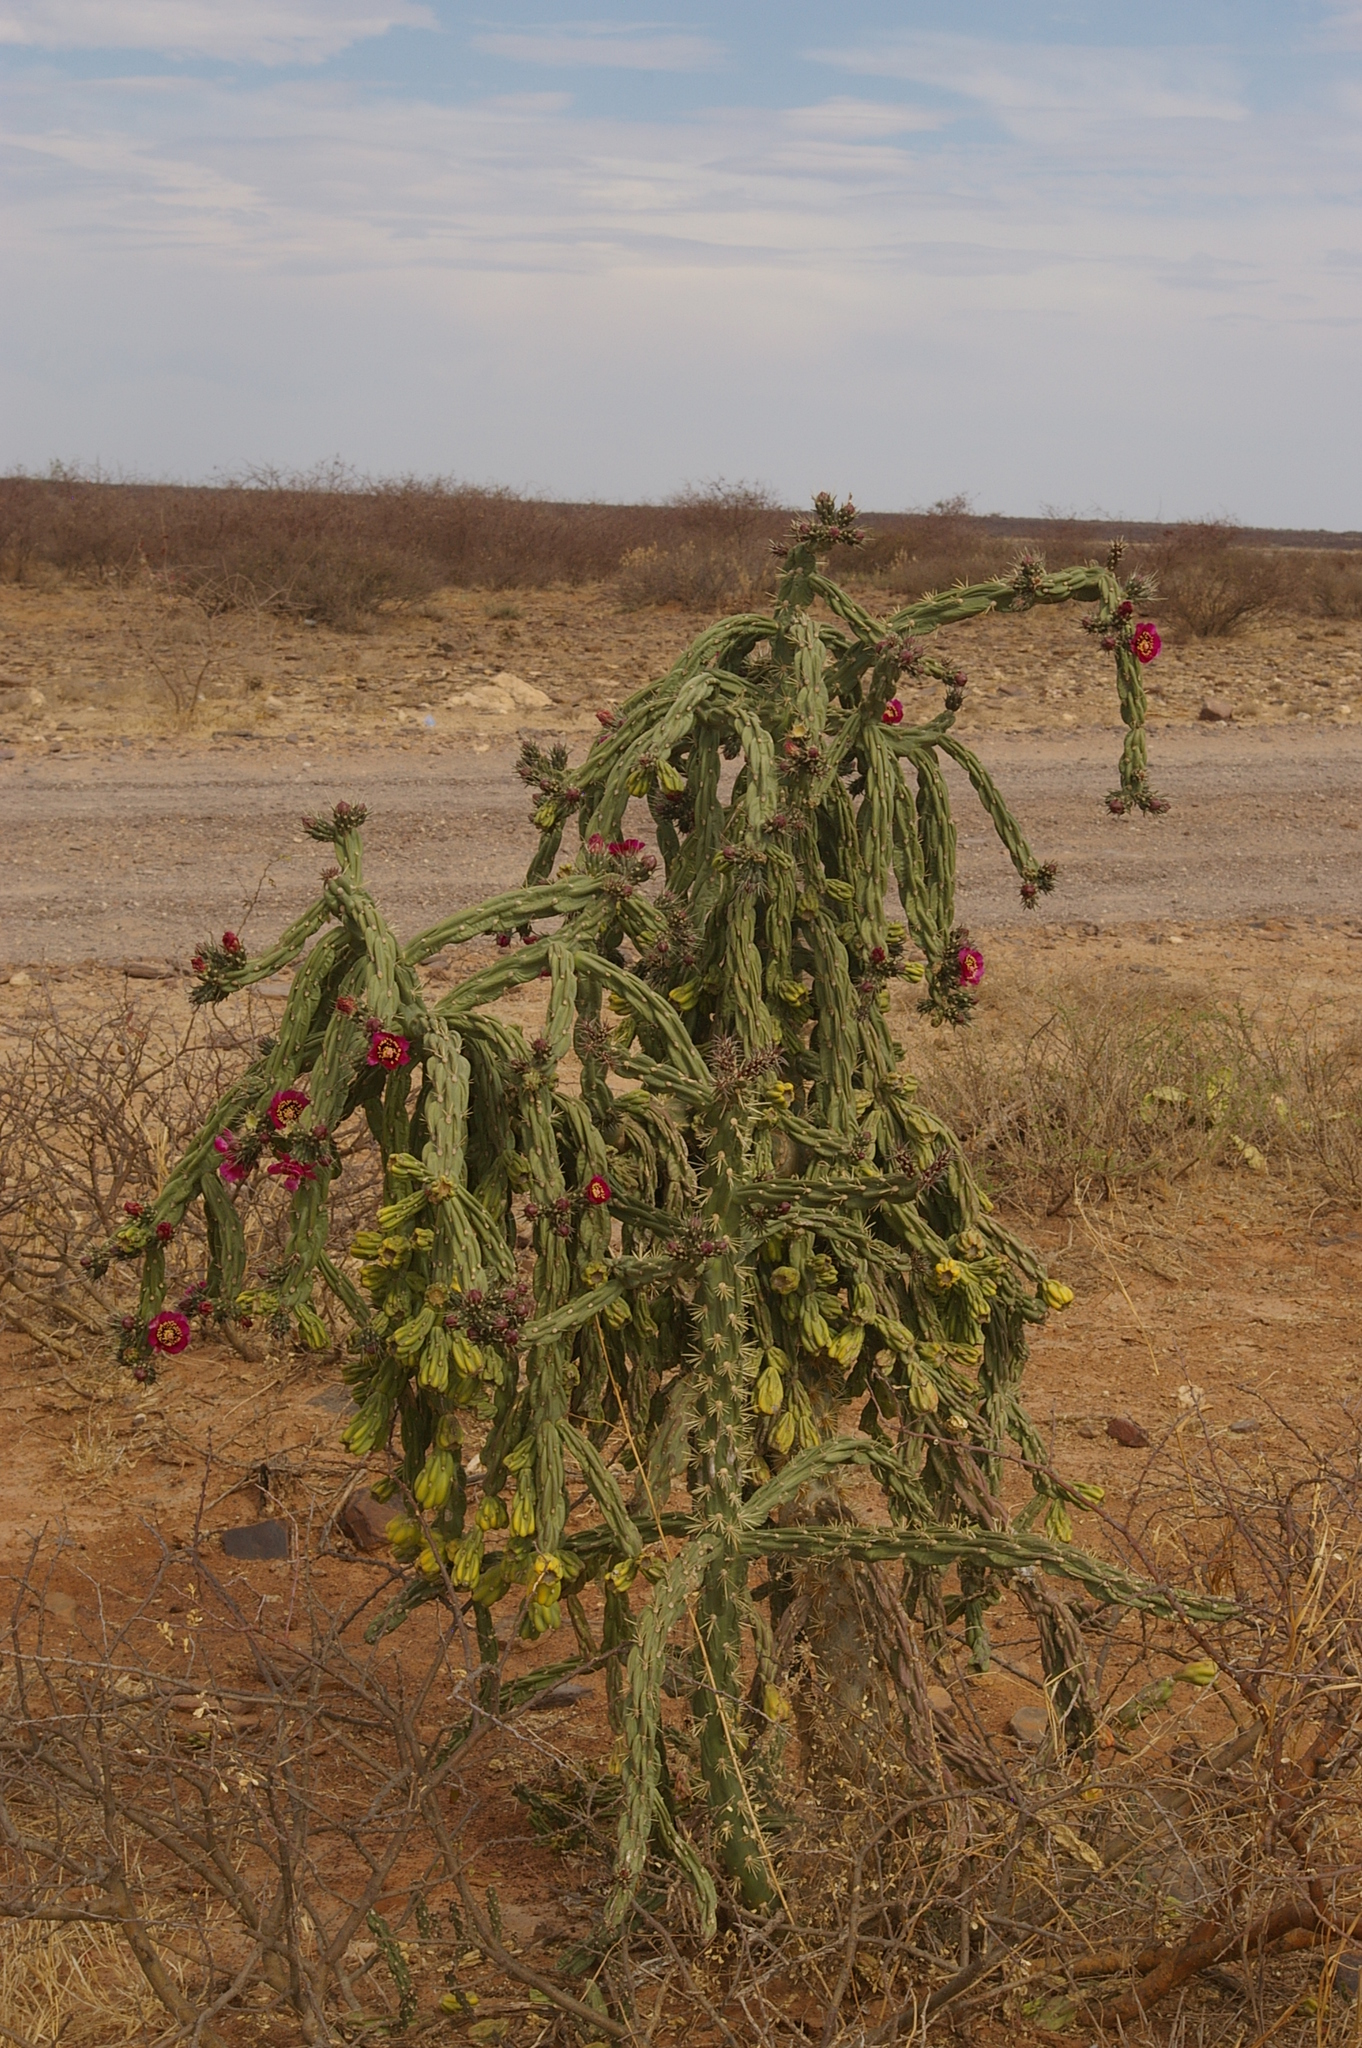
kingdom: Plantae
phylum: Tracheophyta
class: Magnoliopsida
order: Caryophyllales
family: Cactaceae
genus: Cylindropuntia
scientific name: Cylindropuntia imbricata
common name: Candelabrum cactus
